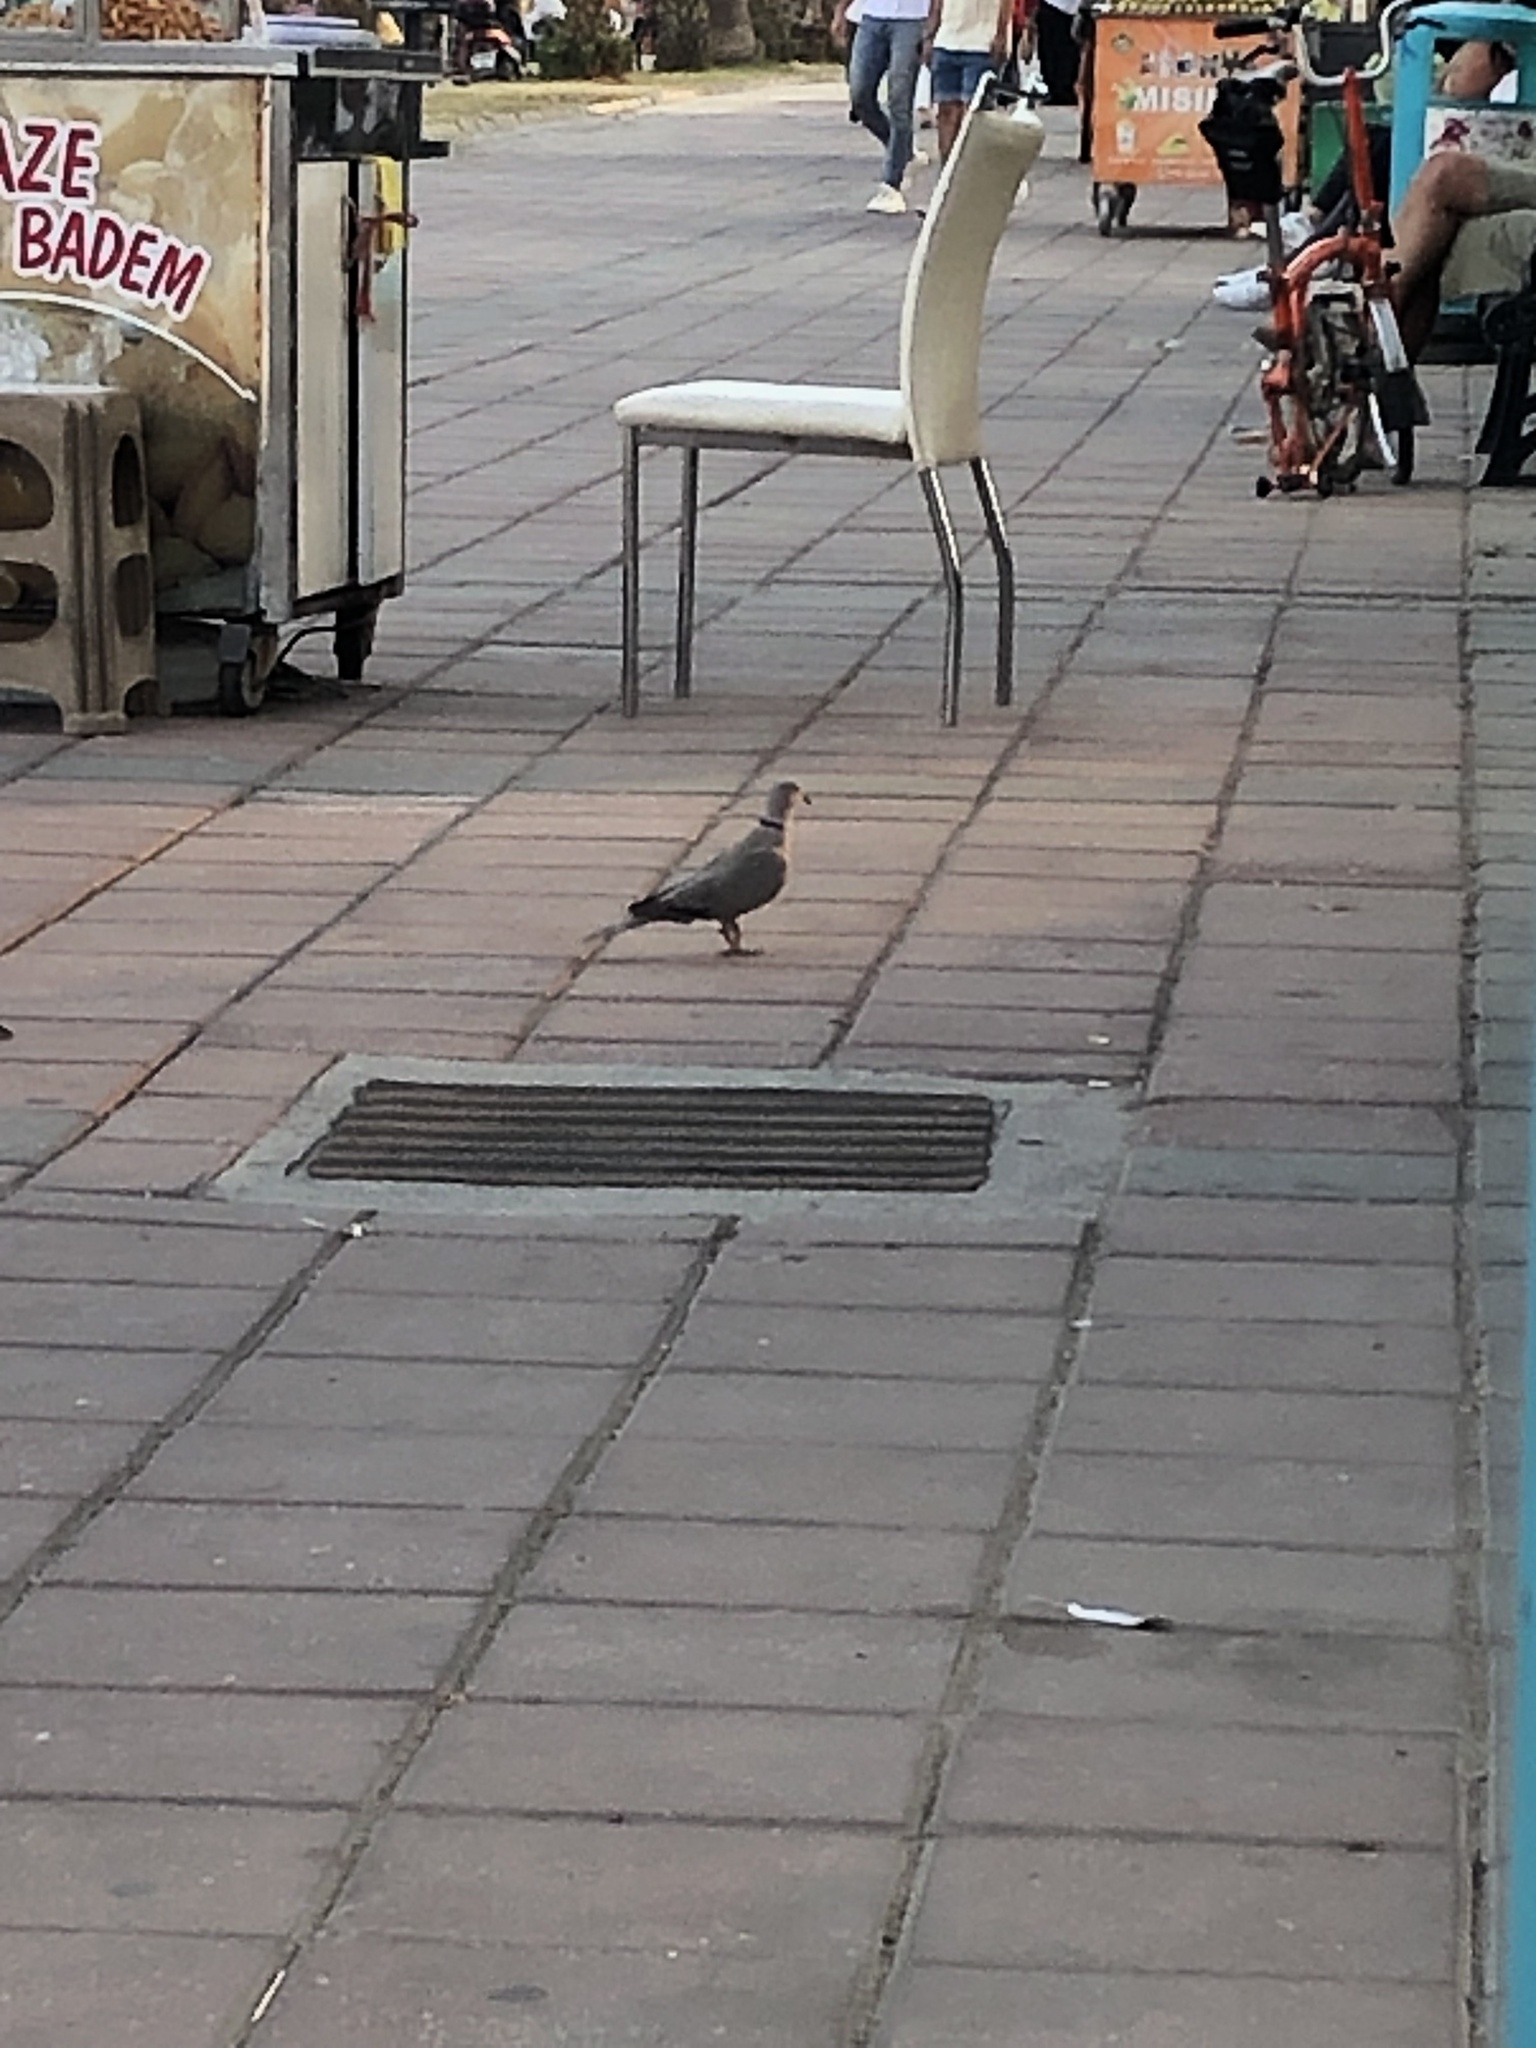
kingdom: Animalia
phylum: Chordata
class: Aves
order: Columbiformes
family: Columbidae
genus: Streptopelia
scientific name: Streptopelia decaocto
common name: Eurasian collared dove
